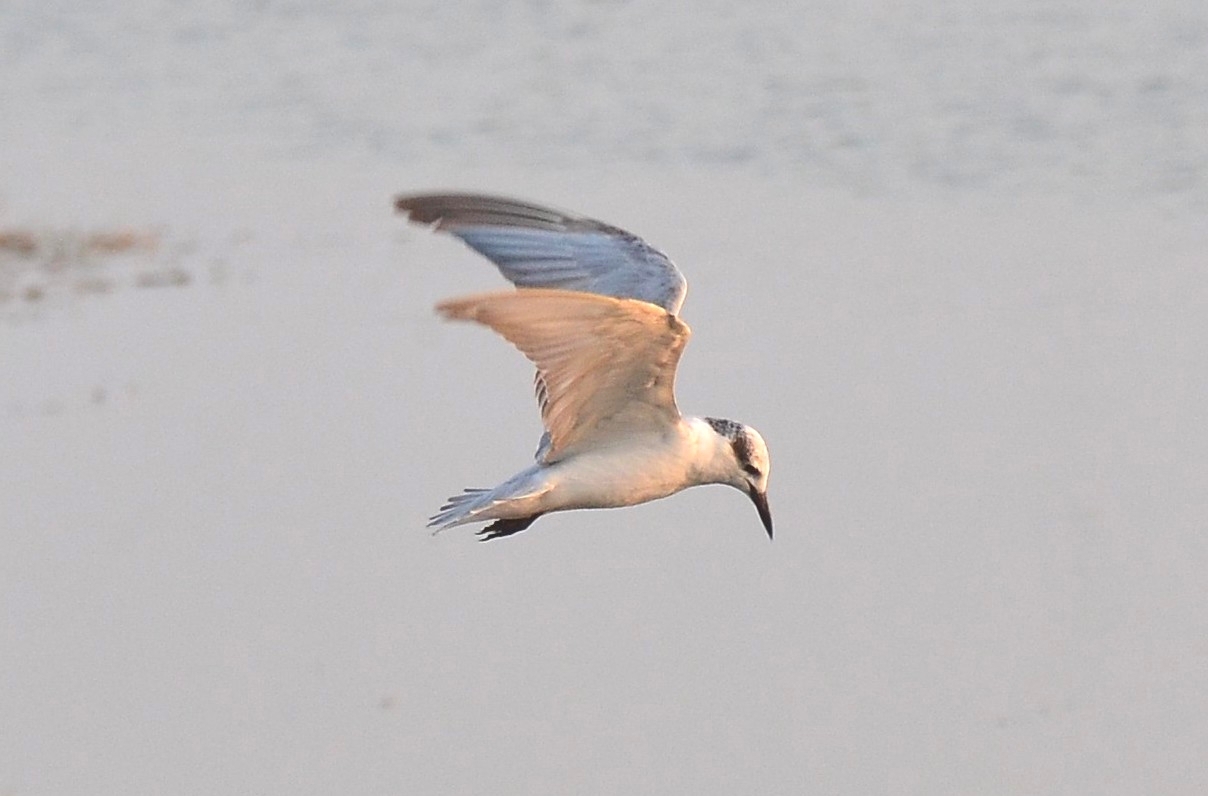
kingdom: Animalia
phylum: Chordata
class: Aves
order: Charadriiformes
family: Laridae
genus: Chlidonias
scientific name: Chlidonias hybrida
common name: Whiskered tern
